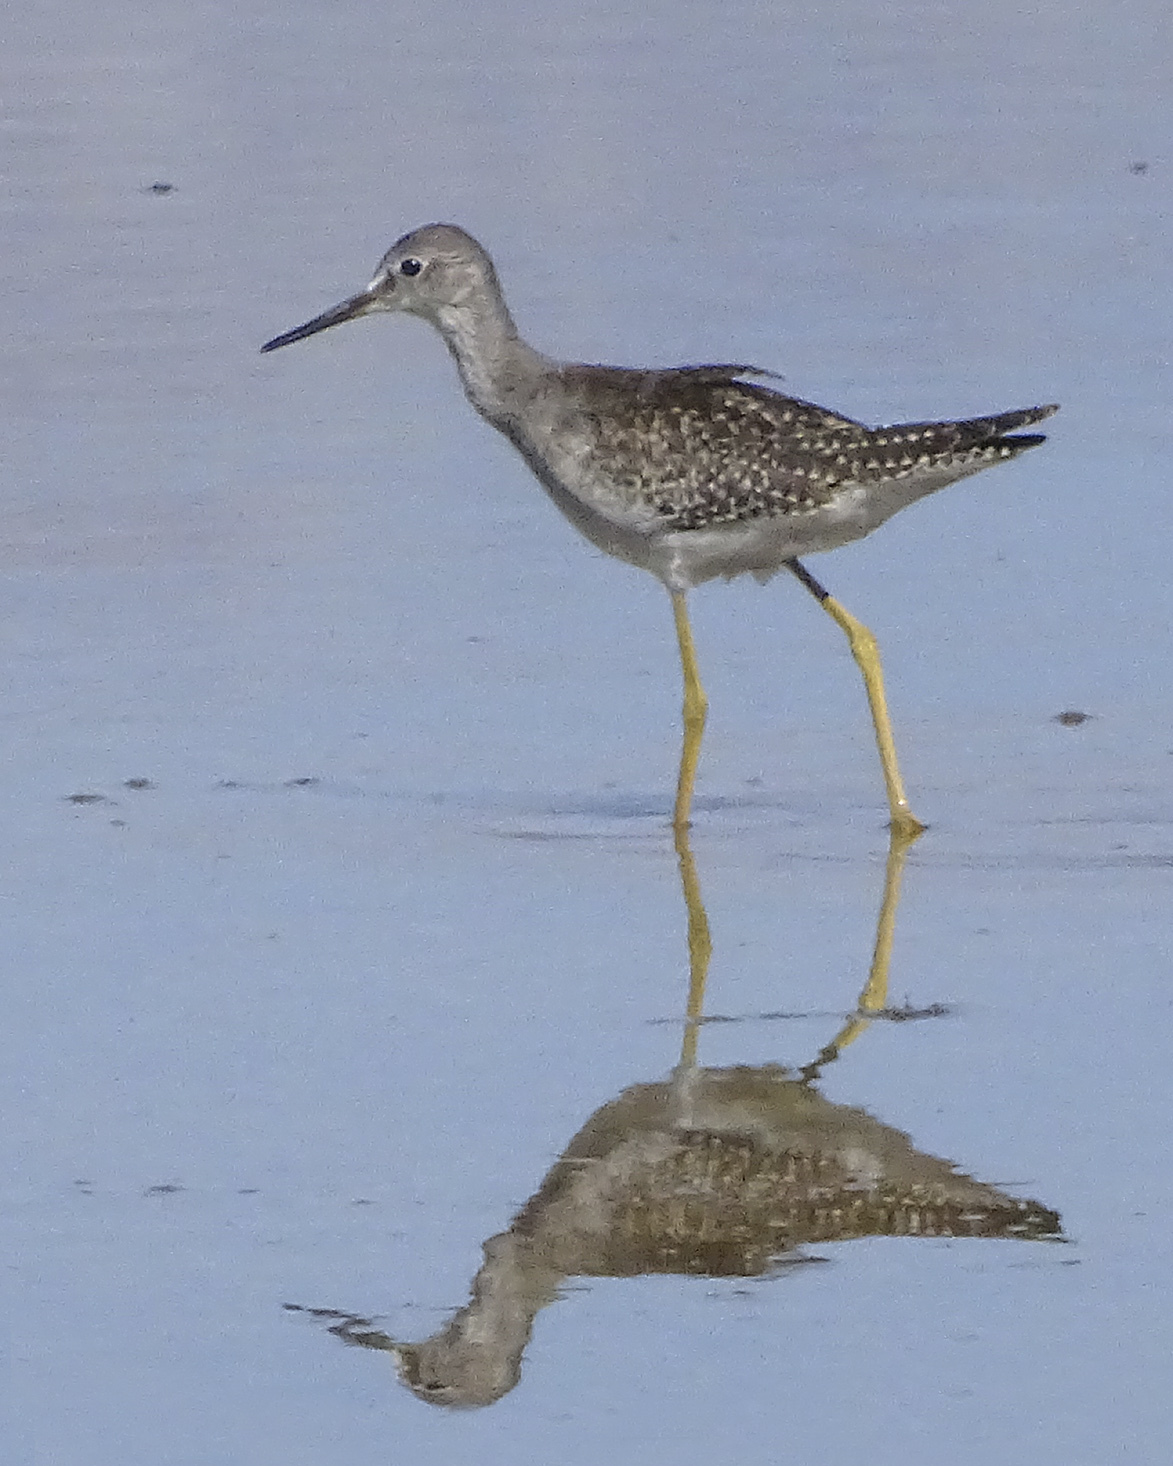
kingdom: Animalia
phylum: Chordata
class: Aves
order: Charadriiformes
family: Scolopacidae
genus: Tringa
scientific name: Tringa flavipes
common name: Lesser yellowlegs
